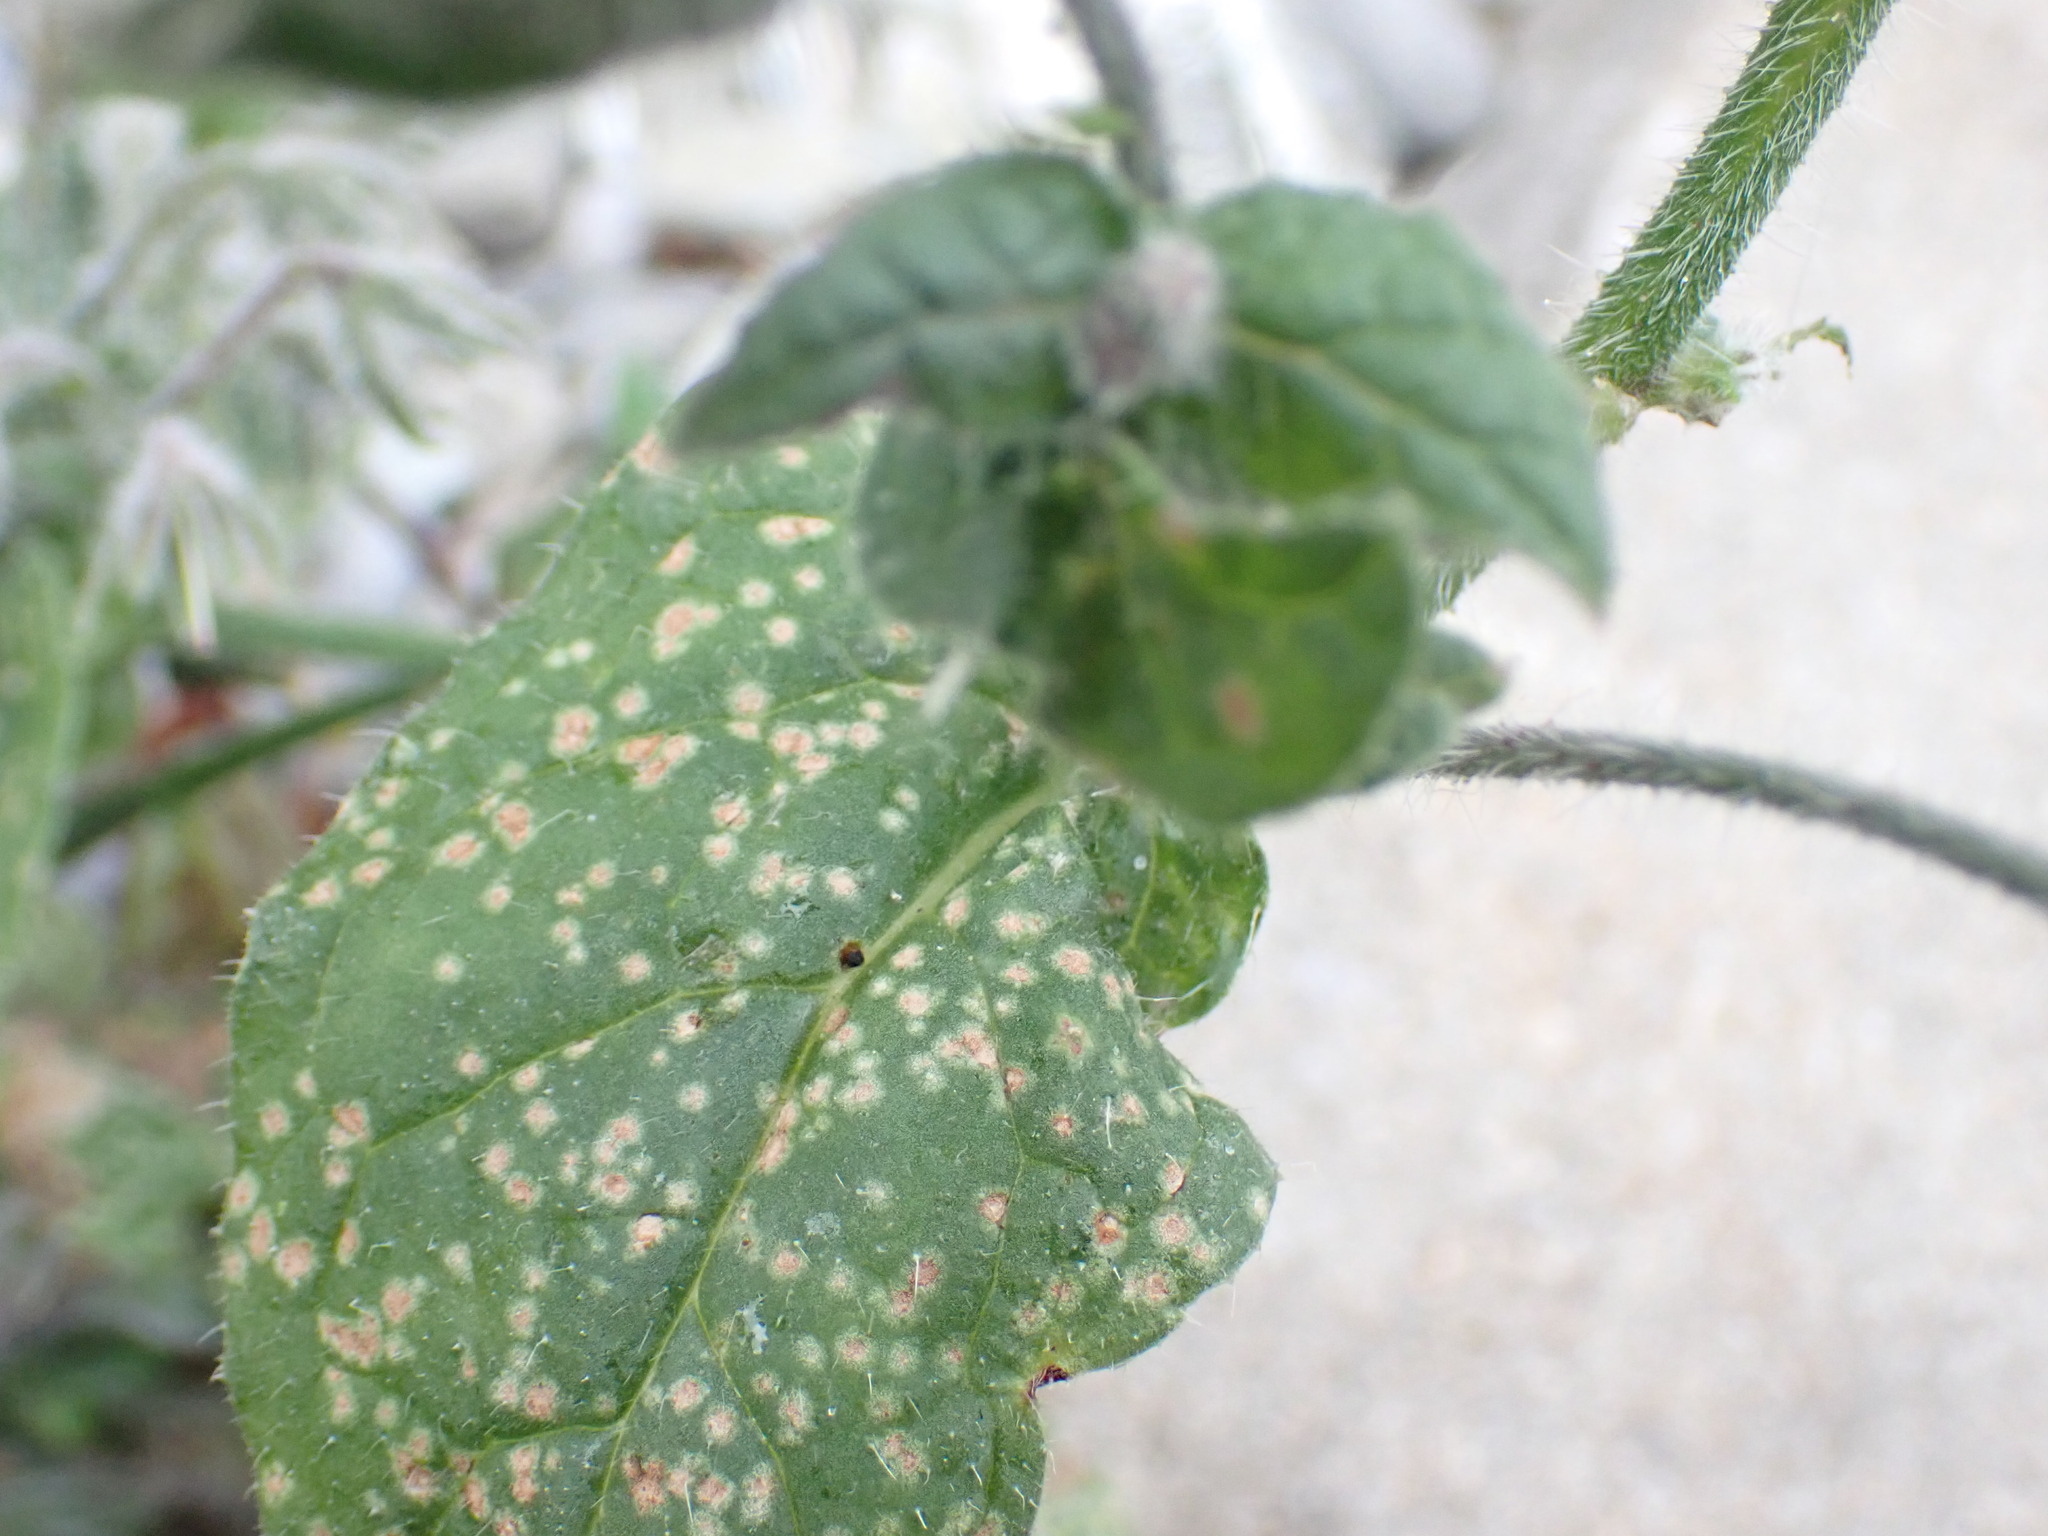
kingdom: Plantae
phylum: Tracheophyta
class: Magnoliopsida
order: Boraginales
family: Boraginaceae
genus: Borago
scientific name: Borago officinalis
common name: Borage
